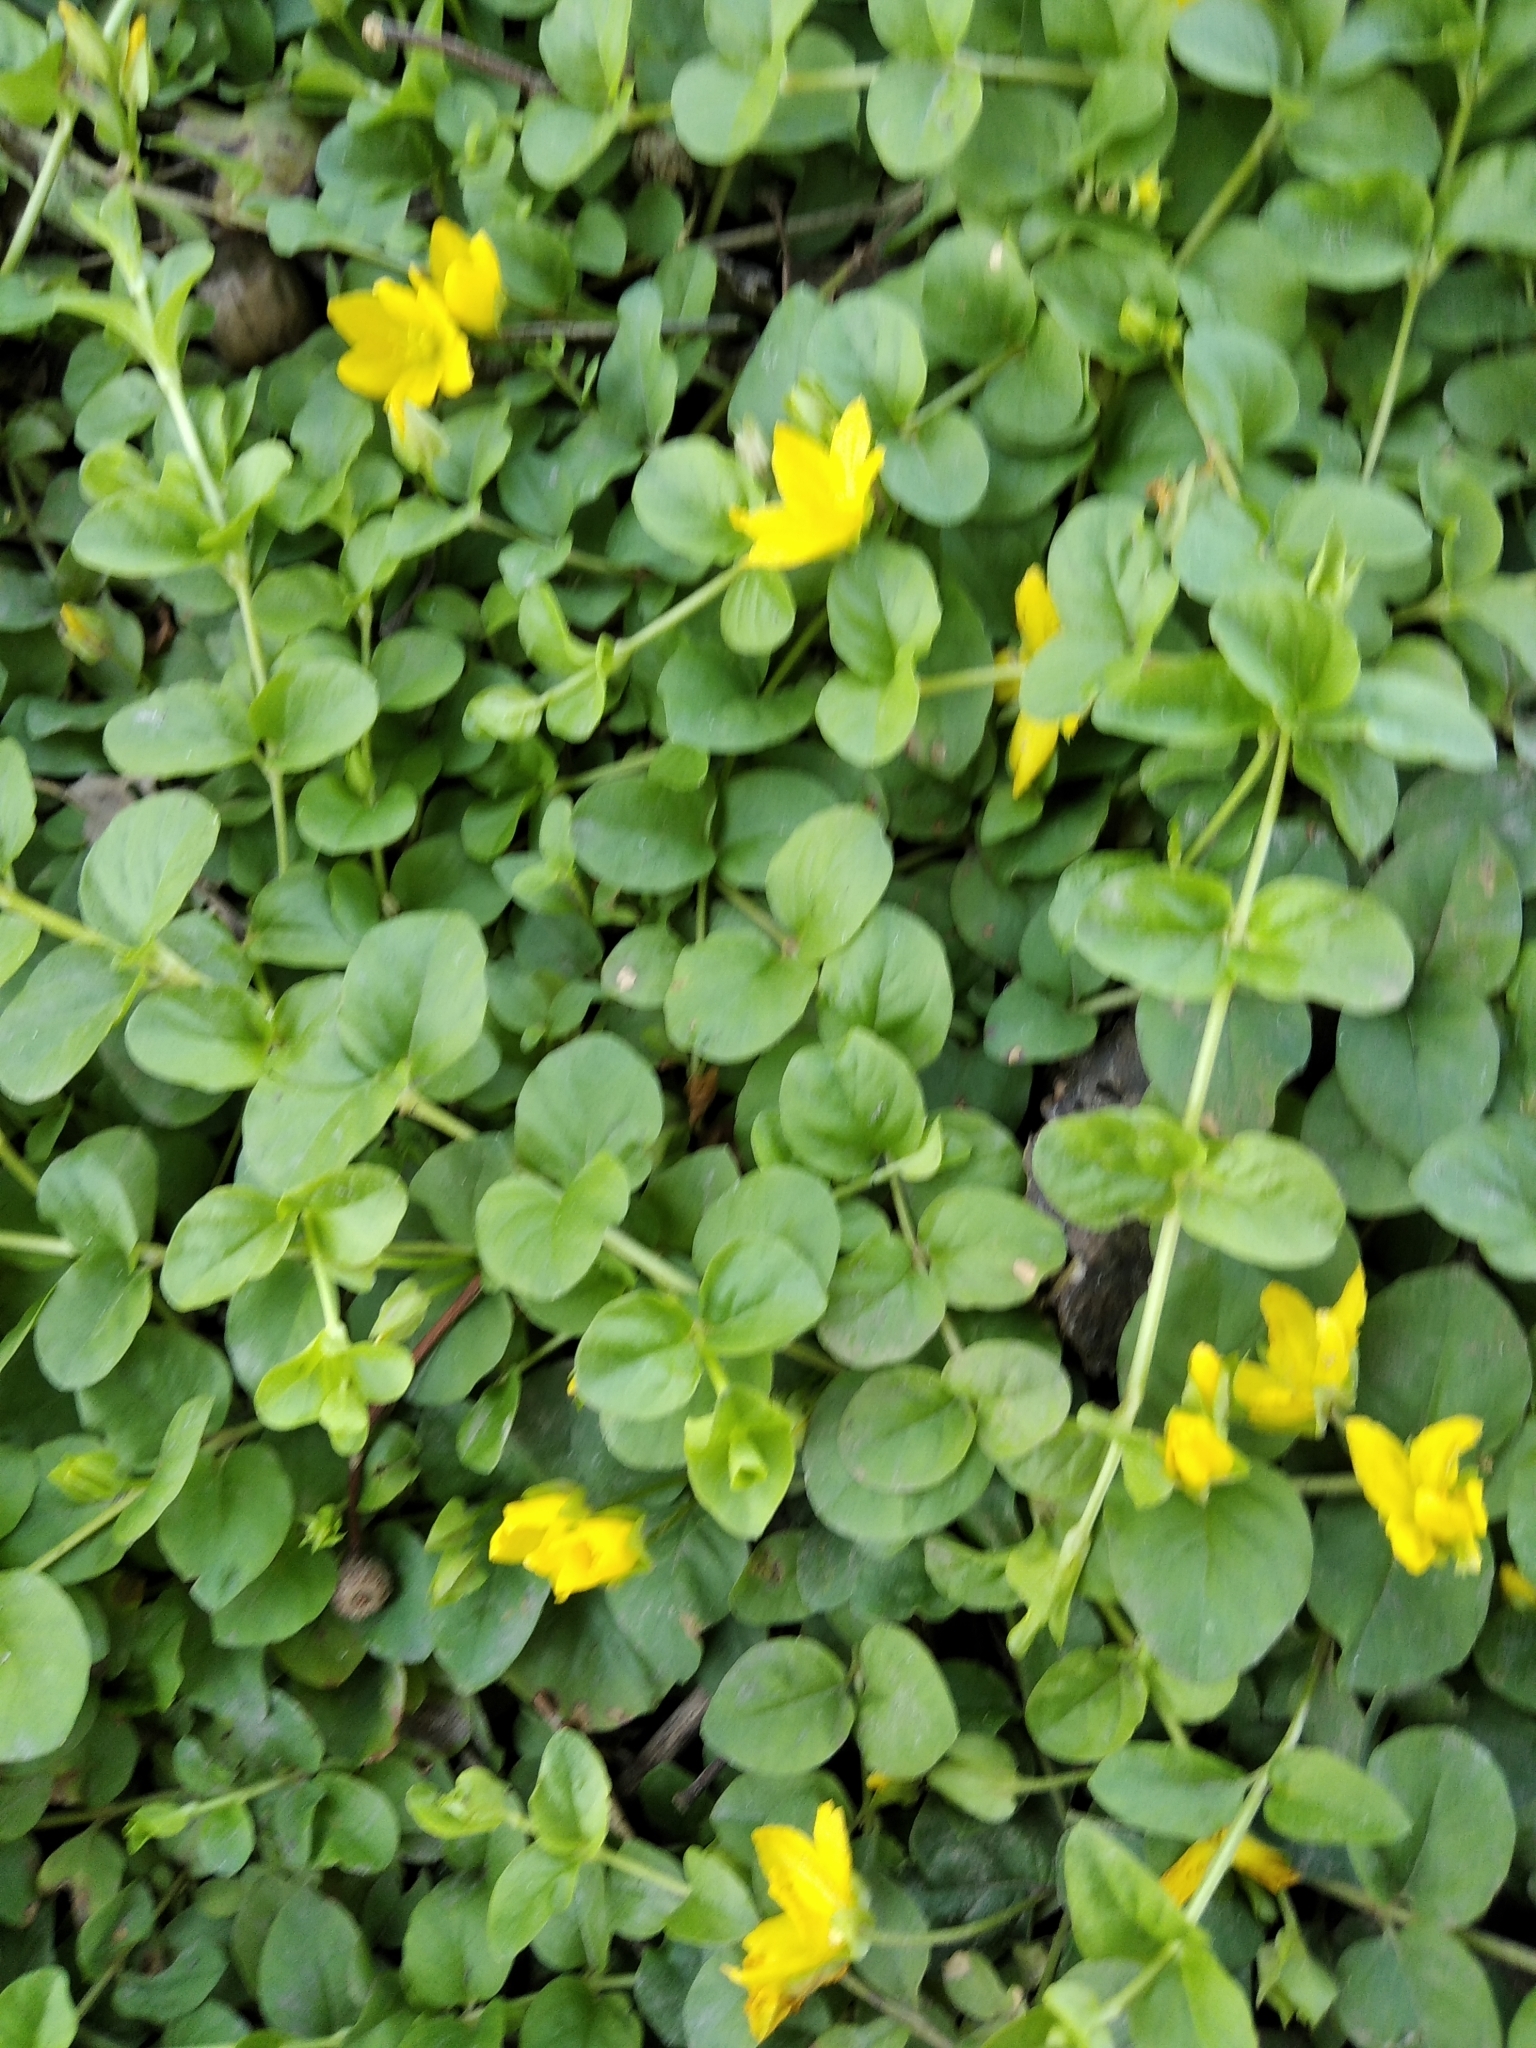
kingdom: Plantae
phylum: Tracheophyta
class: Magnoliopsida
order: Ericales
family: Primulaceae
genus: Lysimachia
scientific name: Lysimachia nummularia
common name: Moneywort
